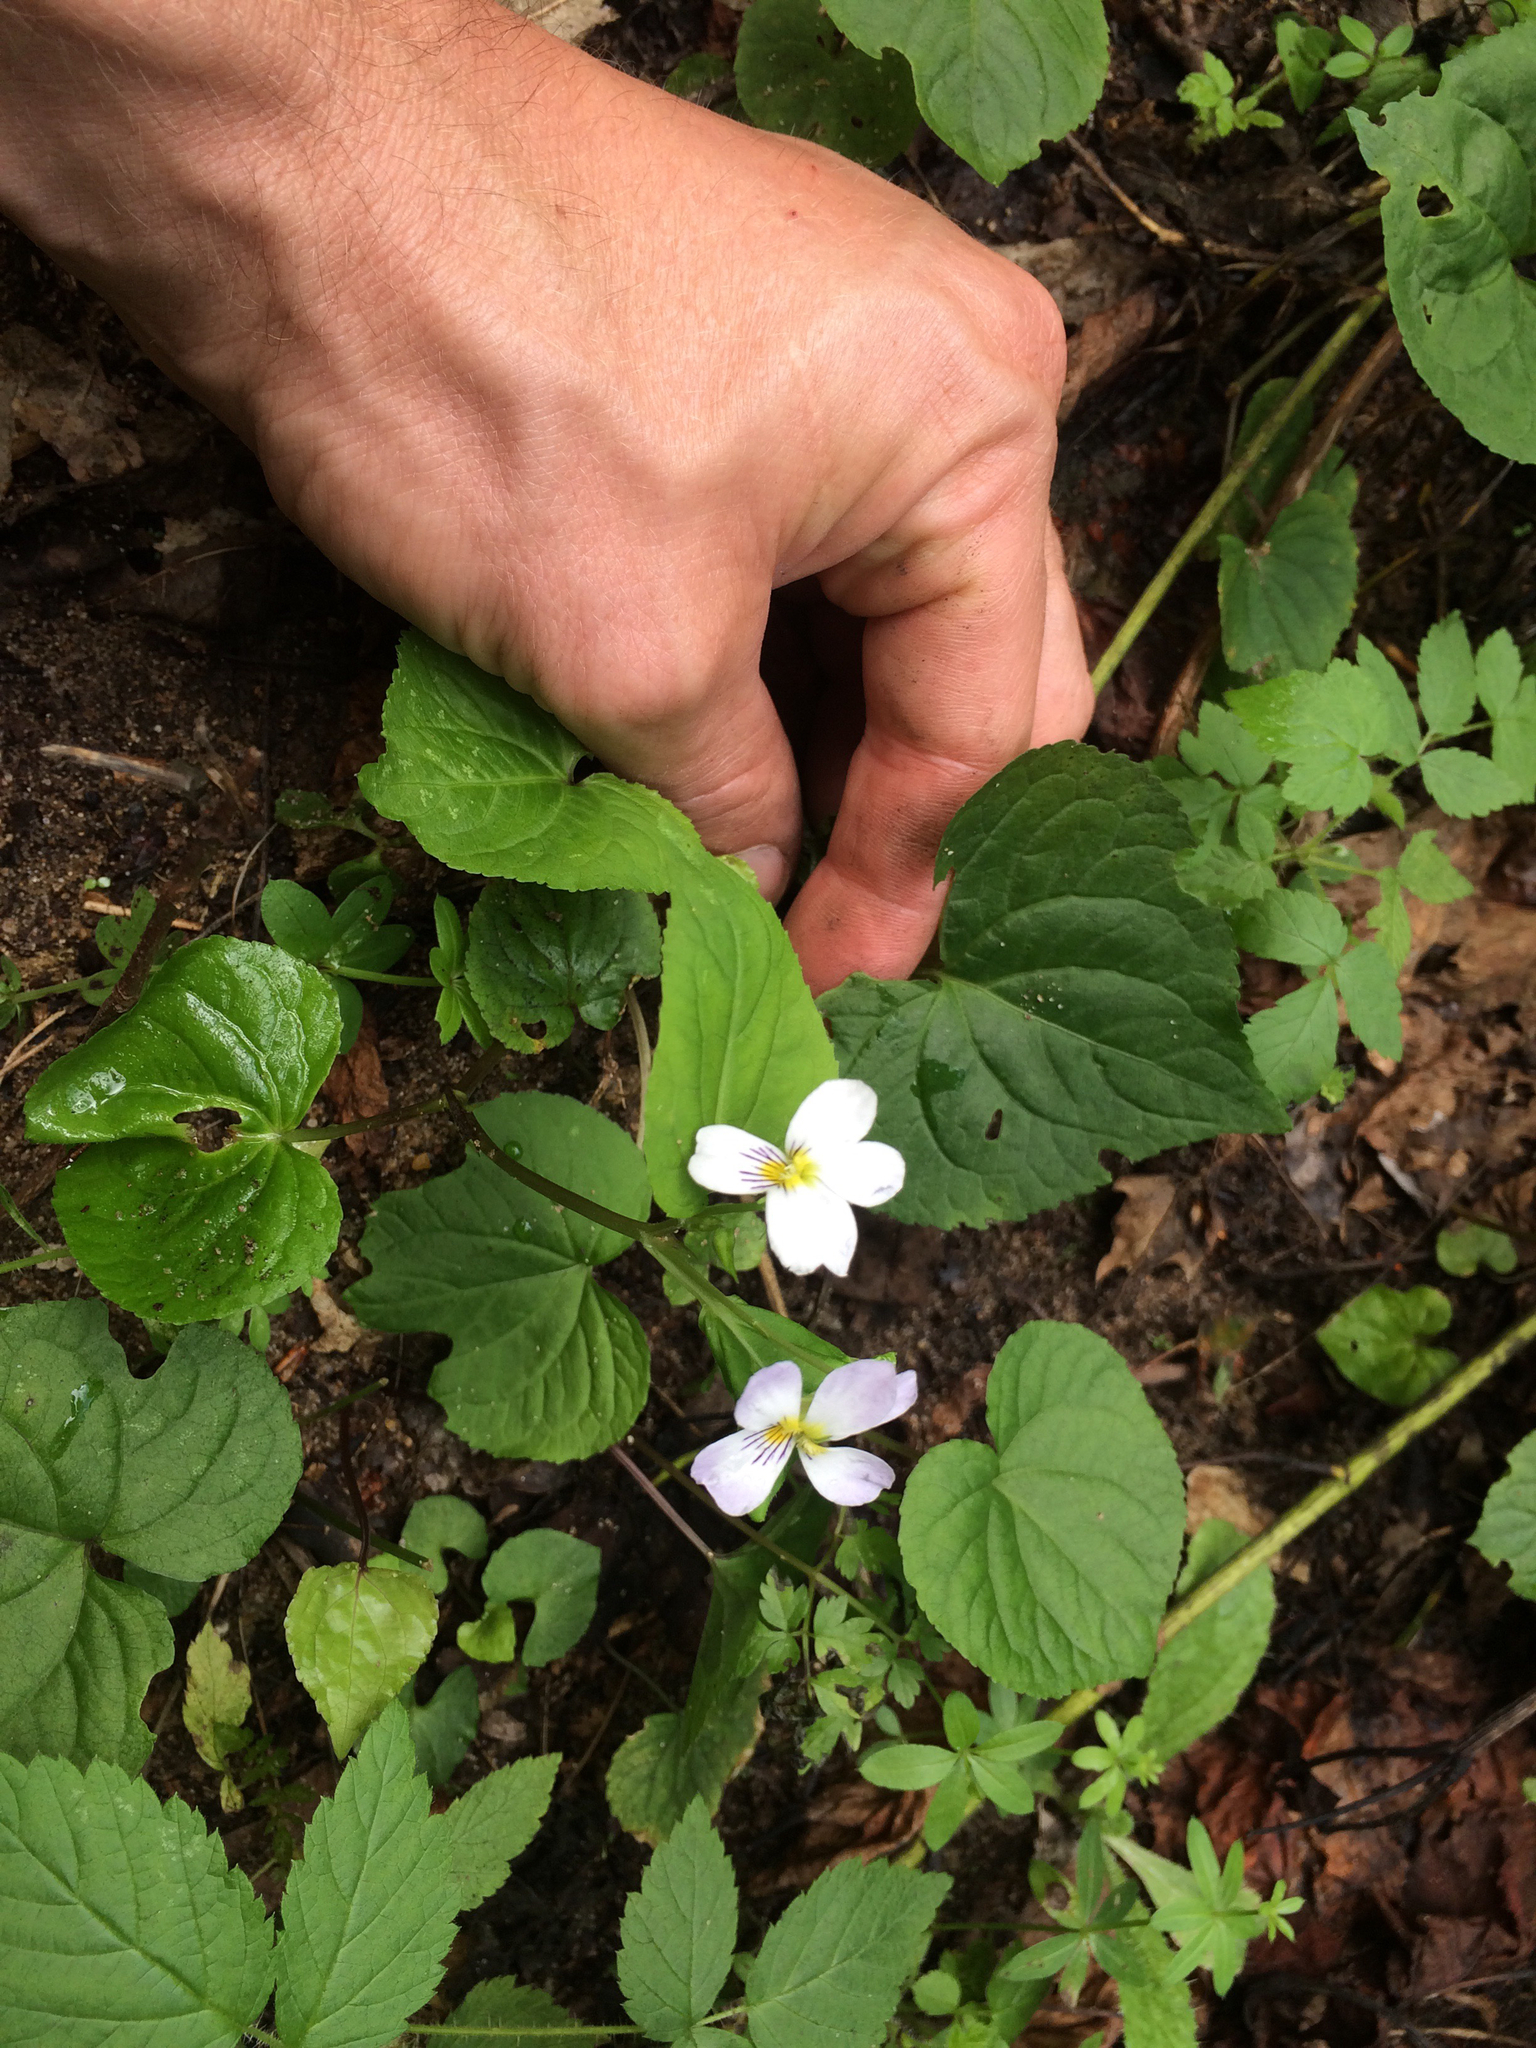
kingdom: Plantae
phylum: Tracheophyta
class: Magnoliopsida
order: Malpighiales
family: Violaceae
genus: Viola
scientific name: Viola canadensis
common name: Canada violet
